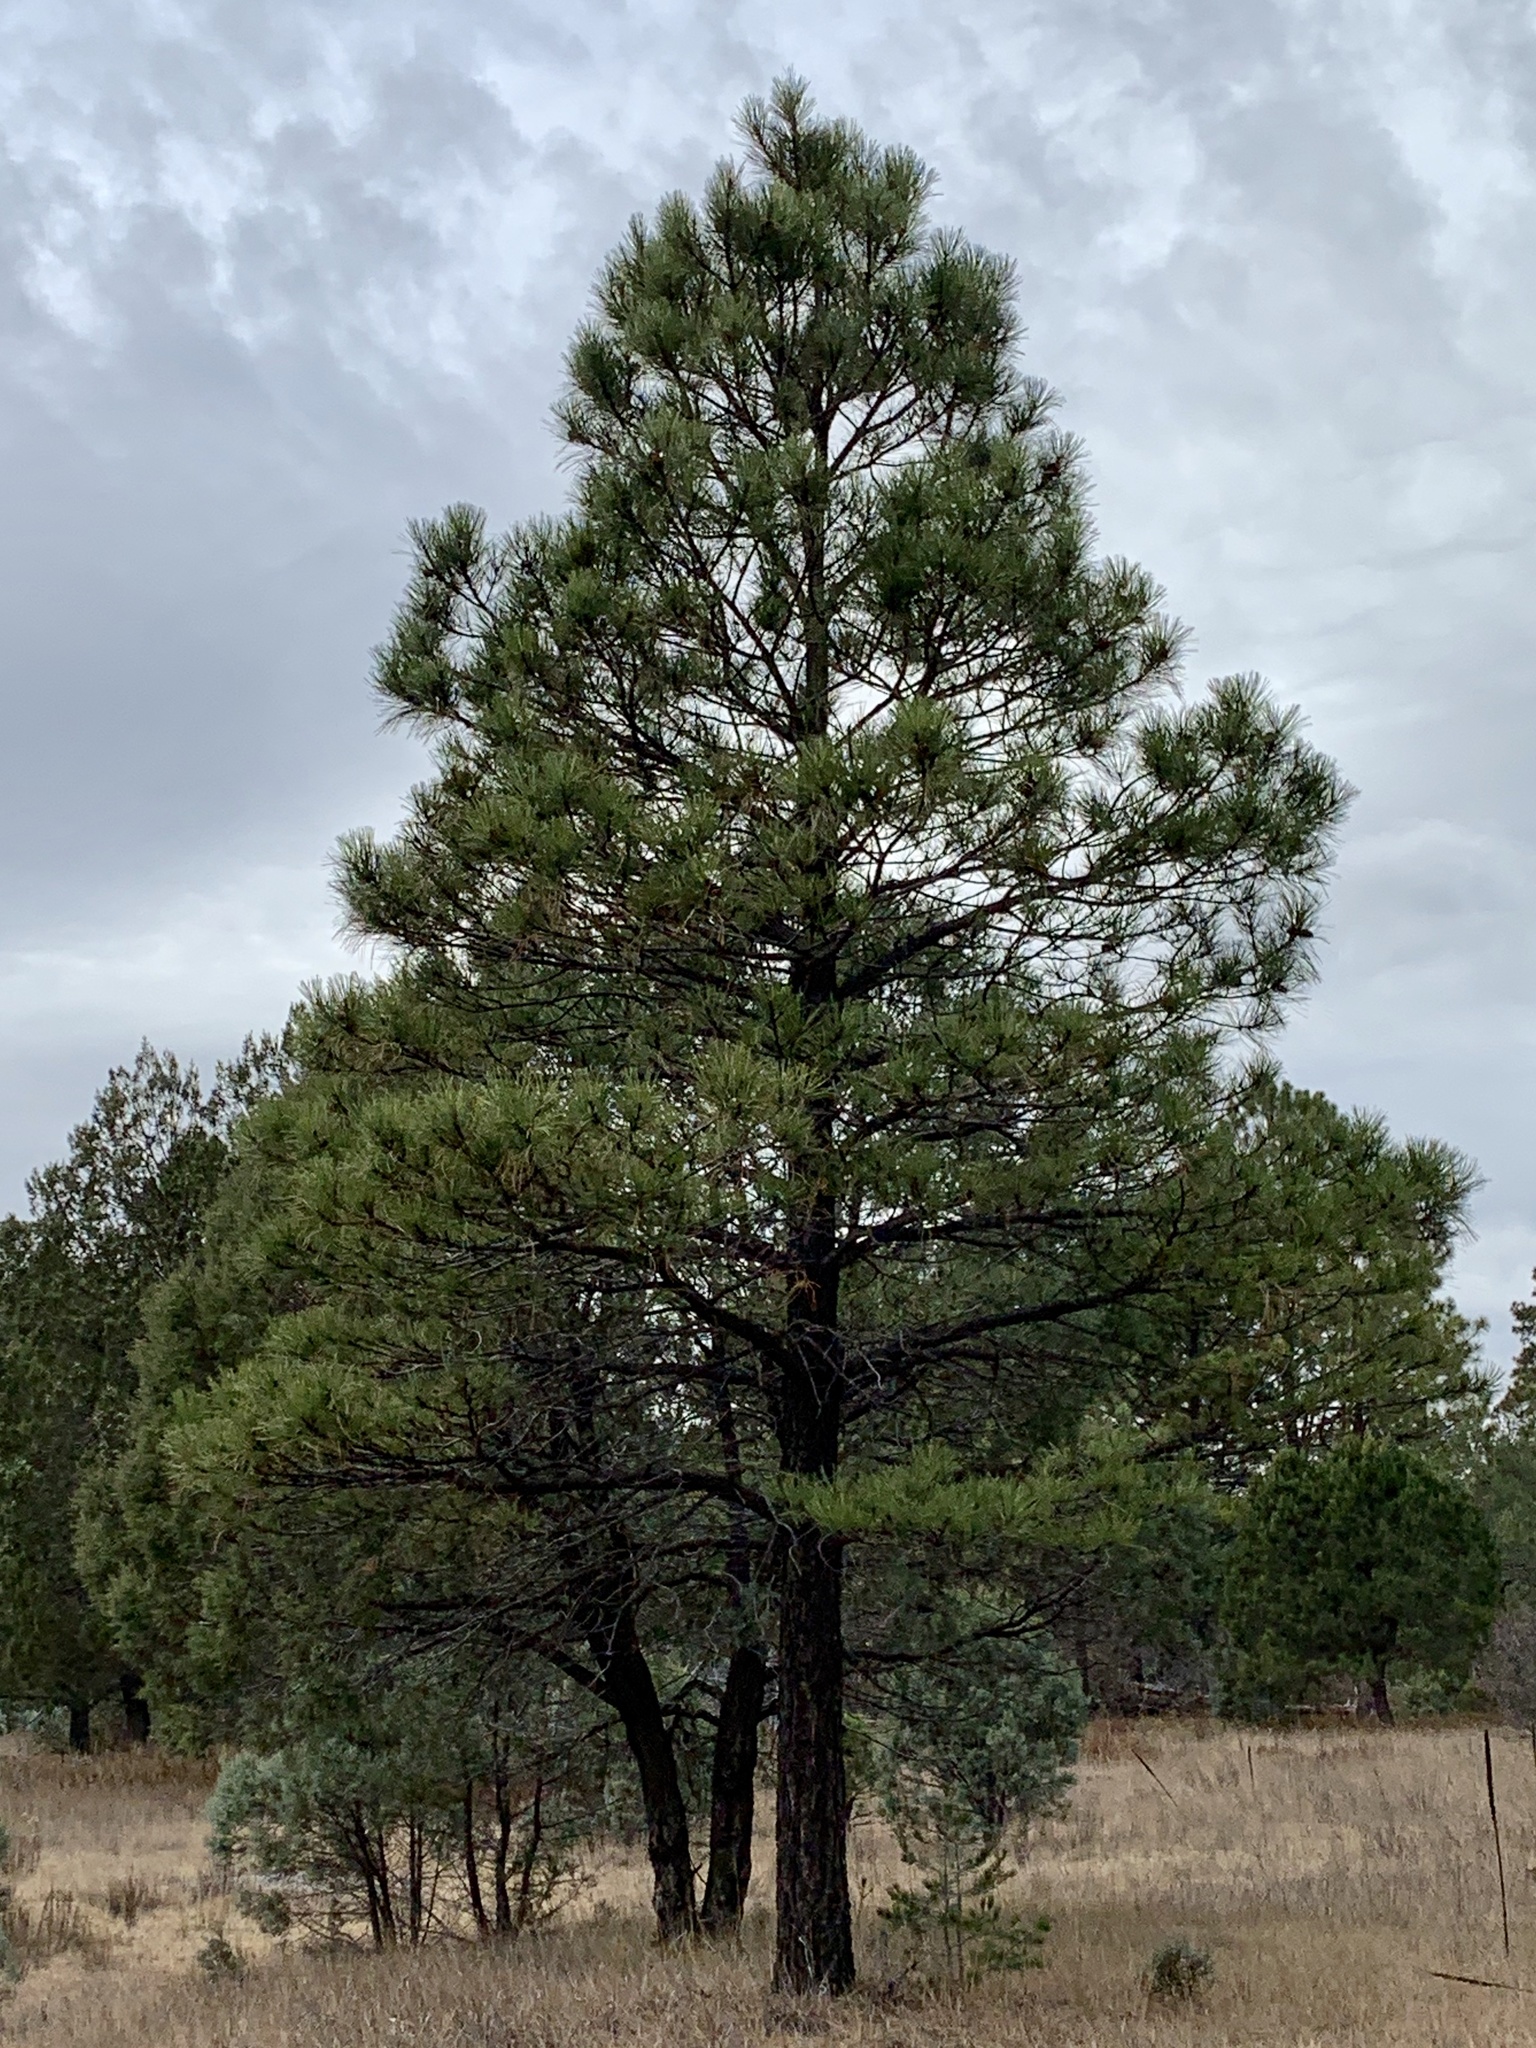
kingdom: Plantae
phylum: Tracheophyta
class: Pinopsida
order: Pinales
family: Pinaceae
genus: Pinus
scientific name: Pinus ponderosa
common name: Western yellow-pine
